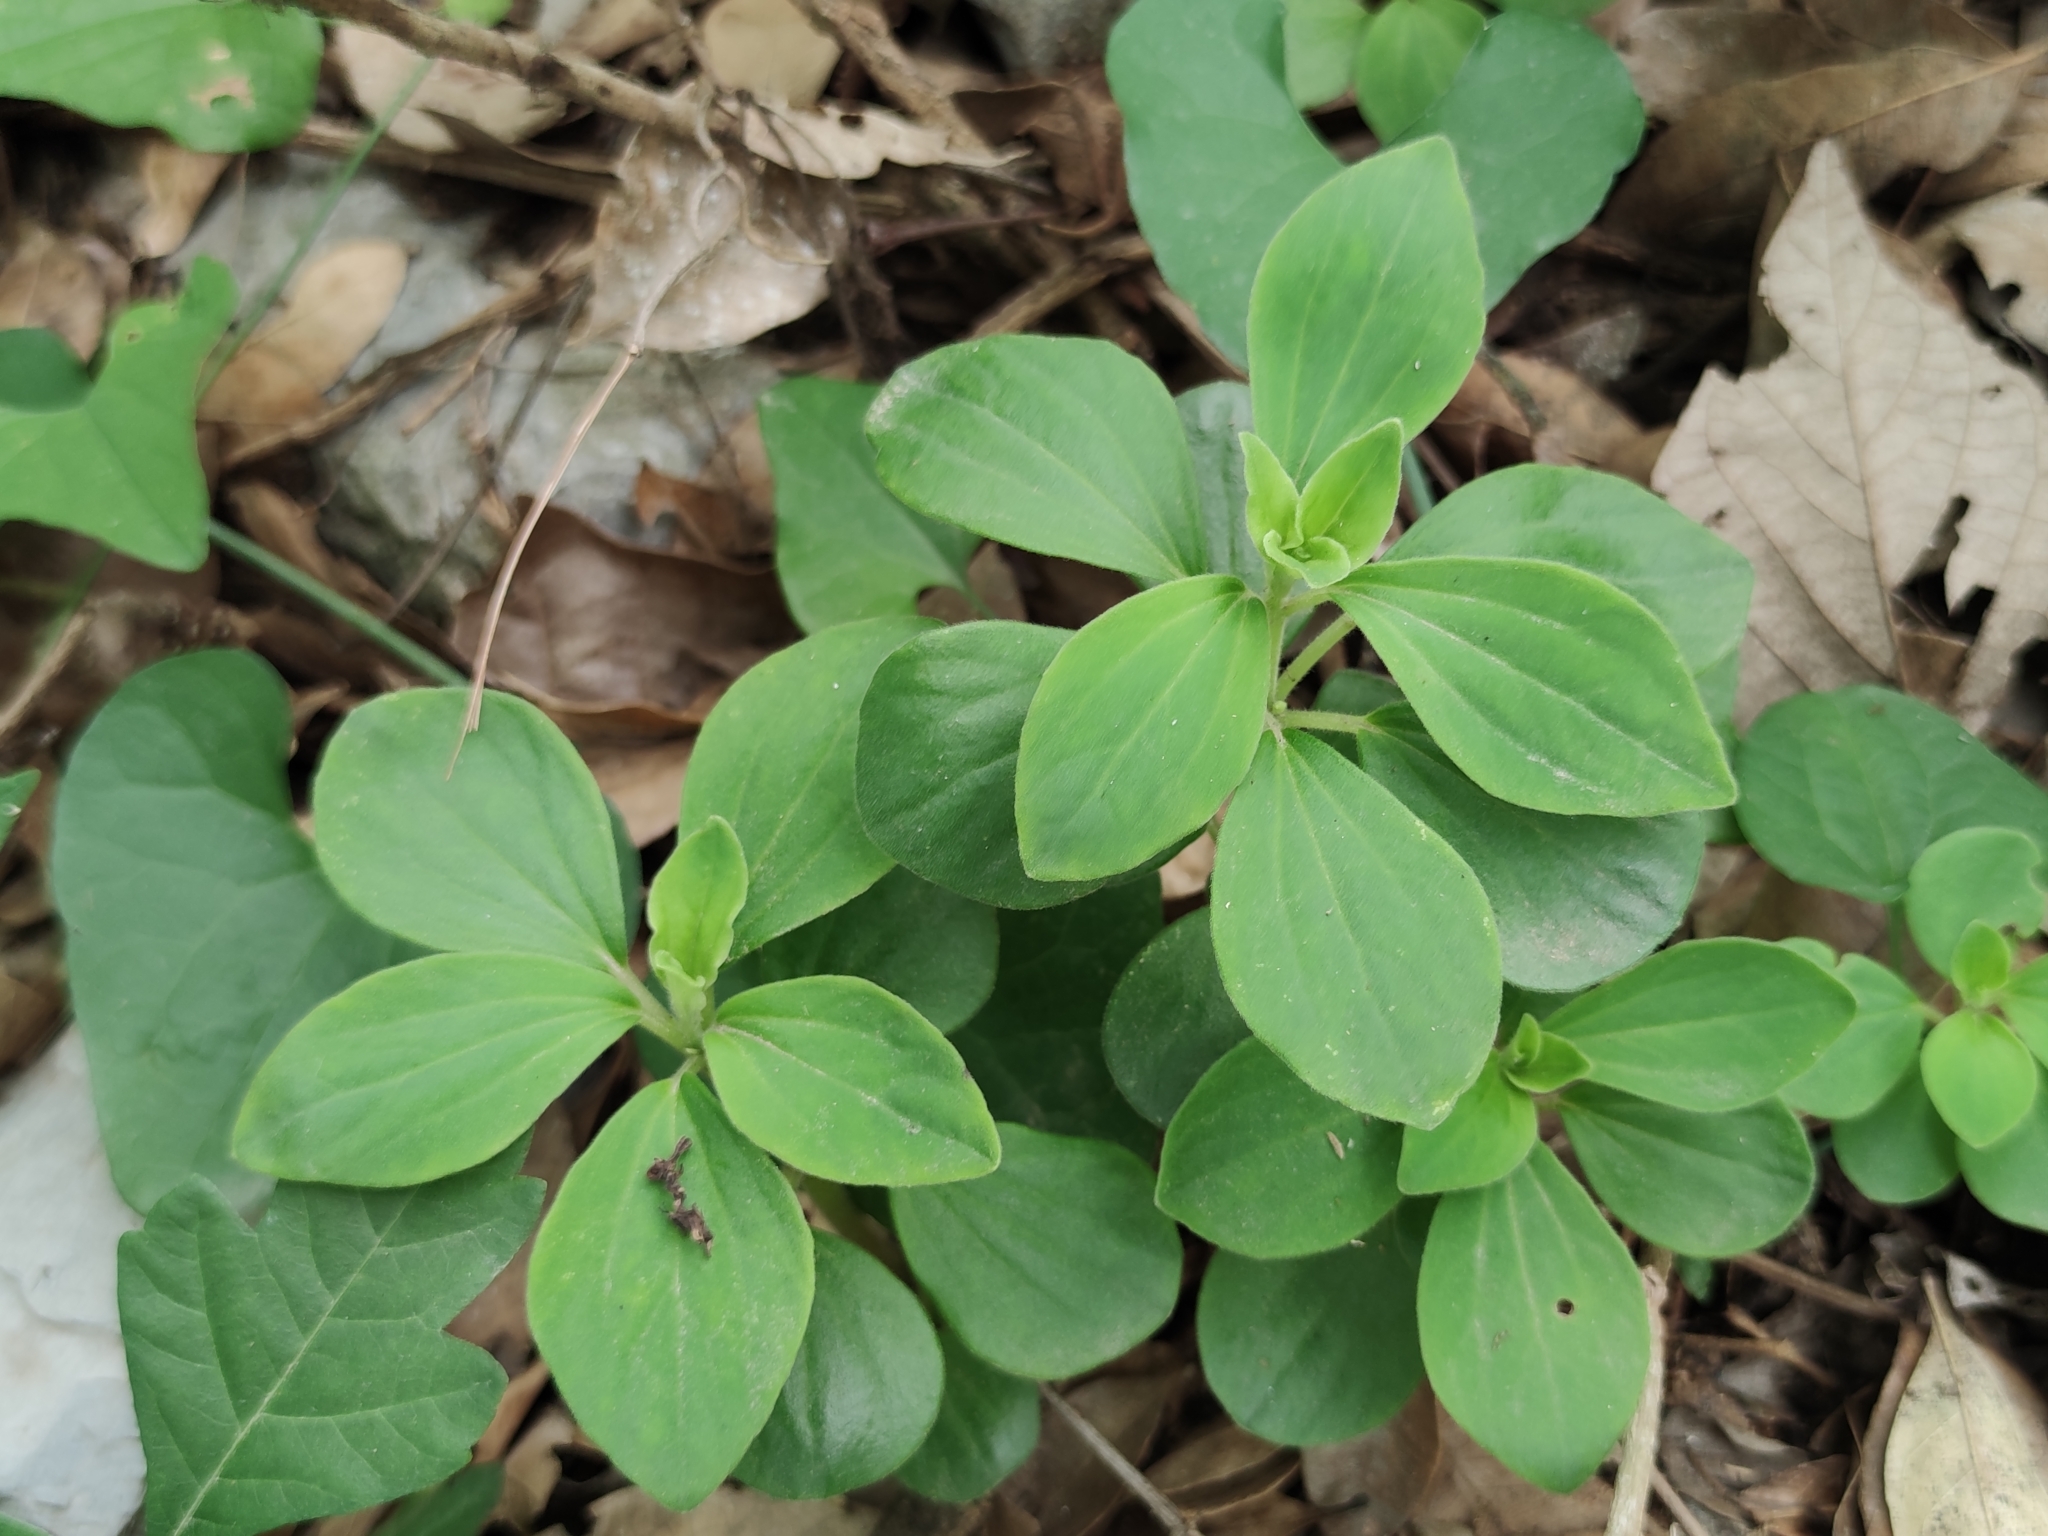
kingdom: Plantae
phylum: Tracheophyta
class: Magnoliopsida
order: Piperales
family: Piperaceae
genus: Peperomia
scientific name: Peperomia liebmannii
